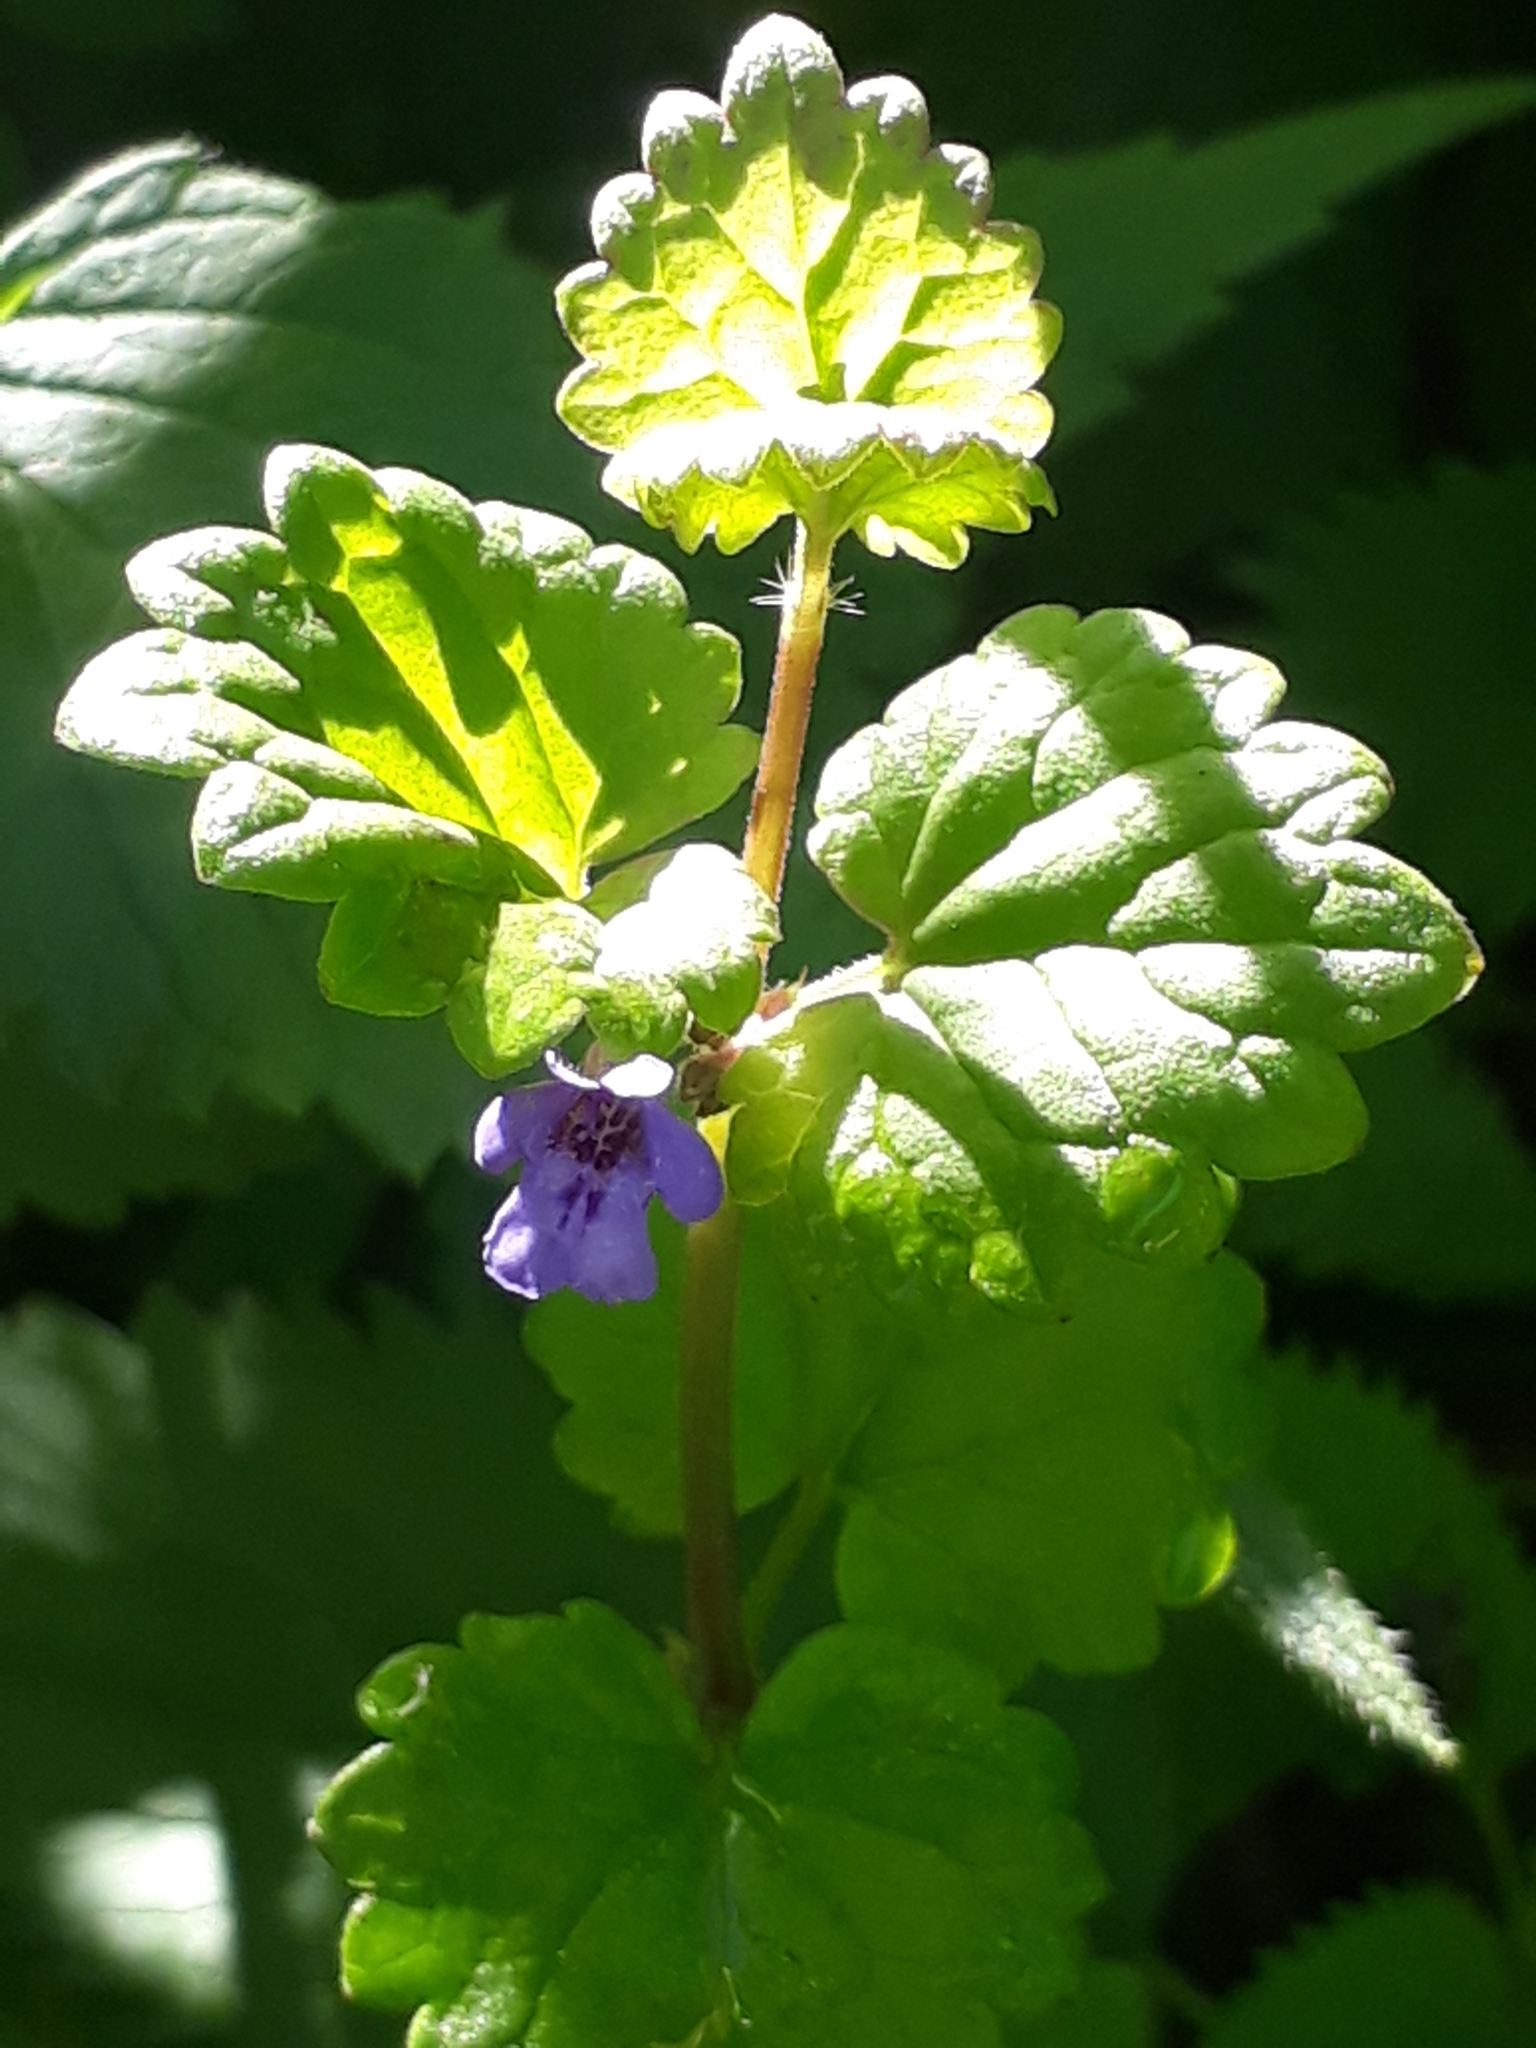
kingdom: Plantae
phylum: Tracheophyta
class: Magnoliopsida
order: Lamiales
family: Lamiaceae
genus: Glechoma
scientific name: Glechoma hederacea
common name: Ground ivy
